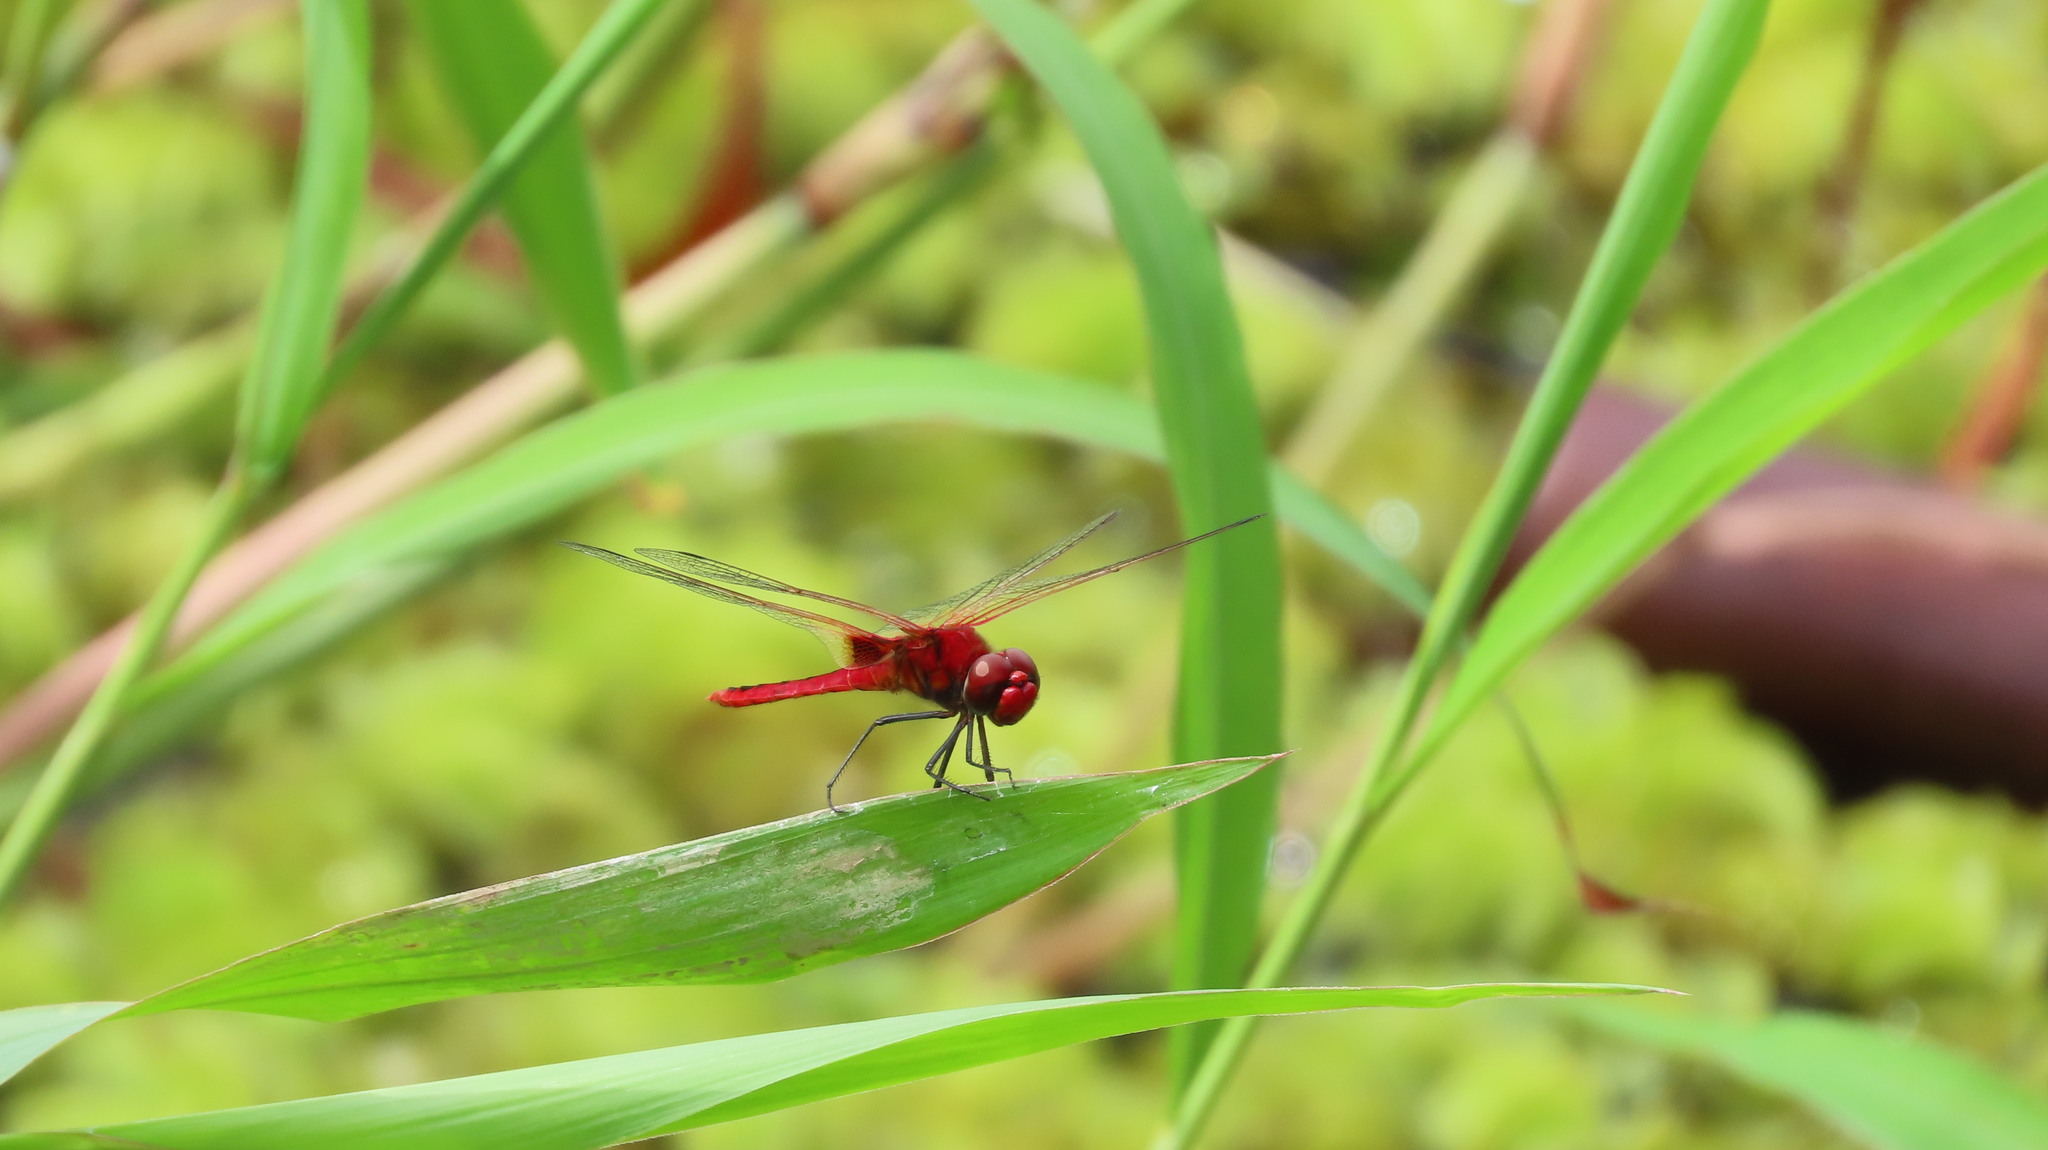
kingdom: Animalia
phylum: Arthropoda
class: Insecta
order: Odonata
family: Libellulidae
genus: Urothemis
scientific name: Urothemis signata
